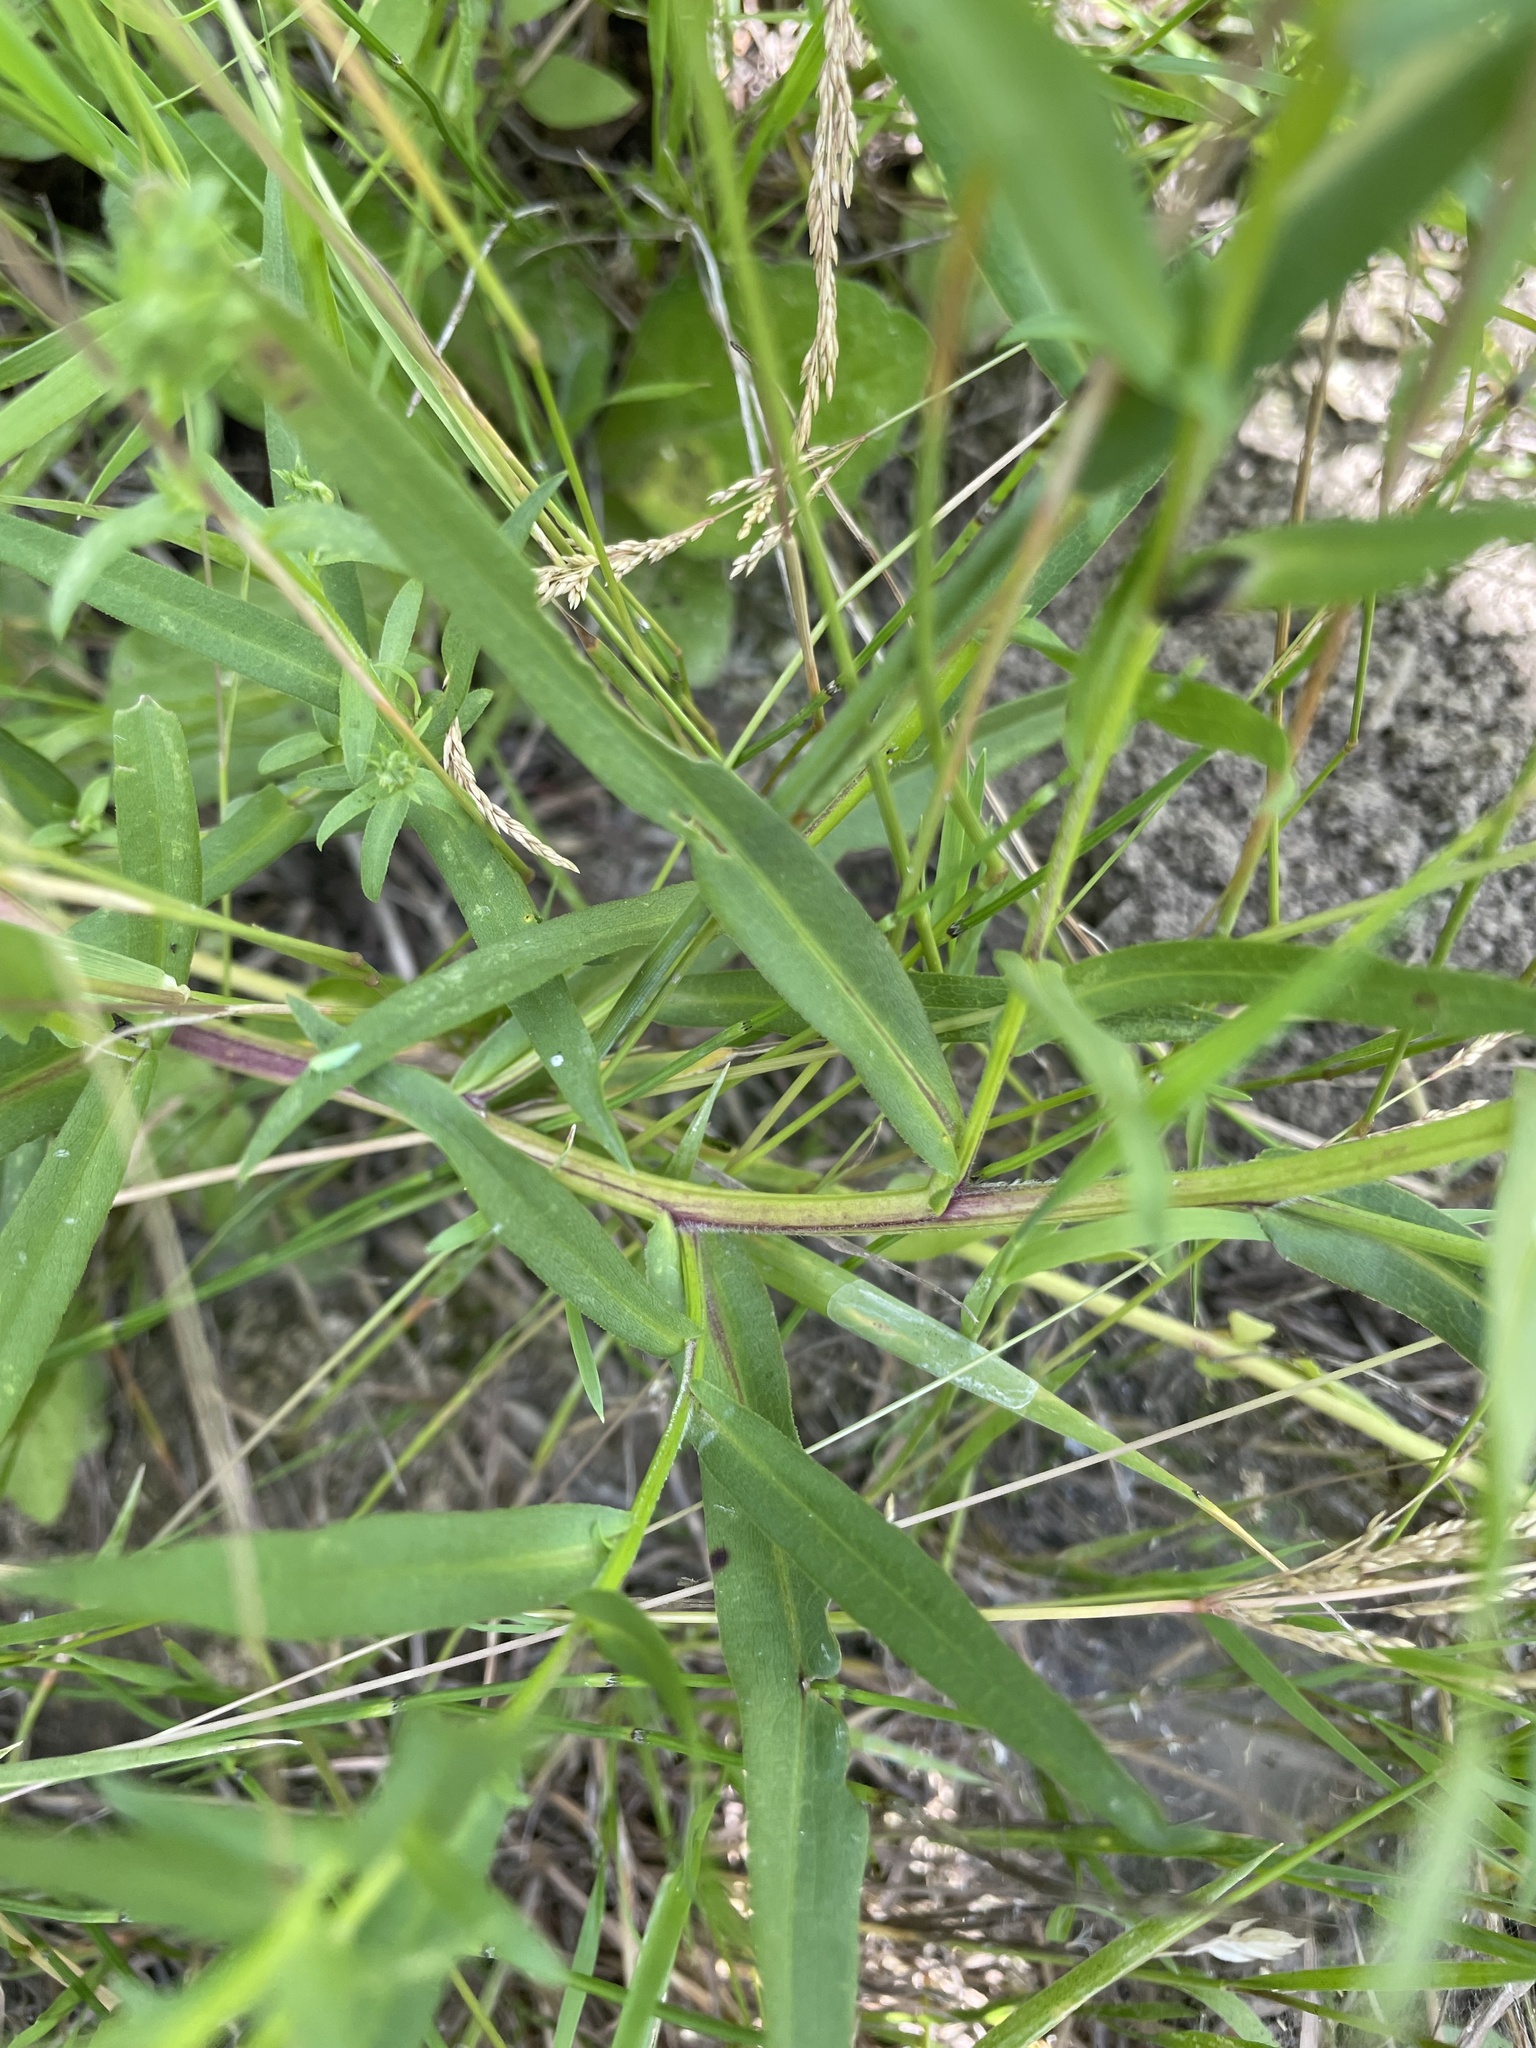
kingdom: Plantae
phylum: Tracheophyta
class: Magnoliopsida
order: Asterales
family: Asteraceae
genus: Symphyotrichum
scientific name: Symphyotrichum lanceolatum
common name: Panicled aster
